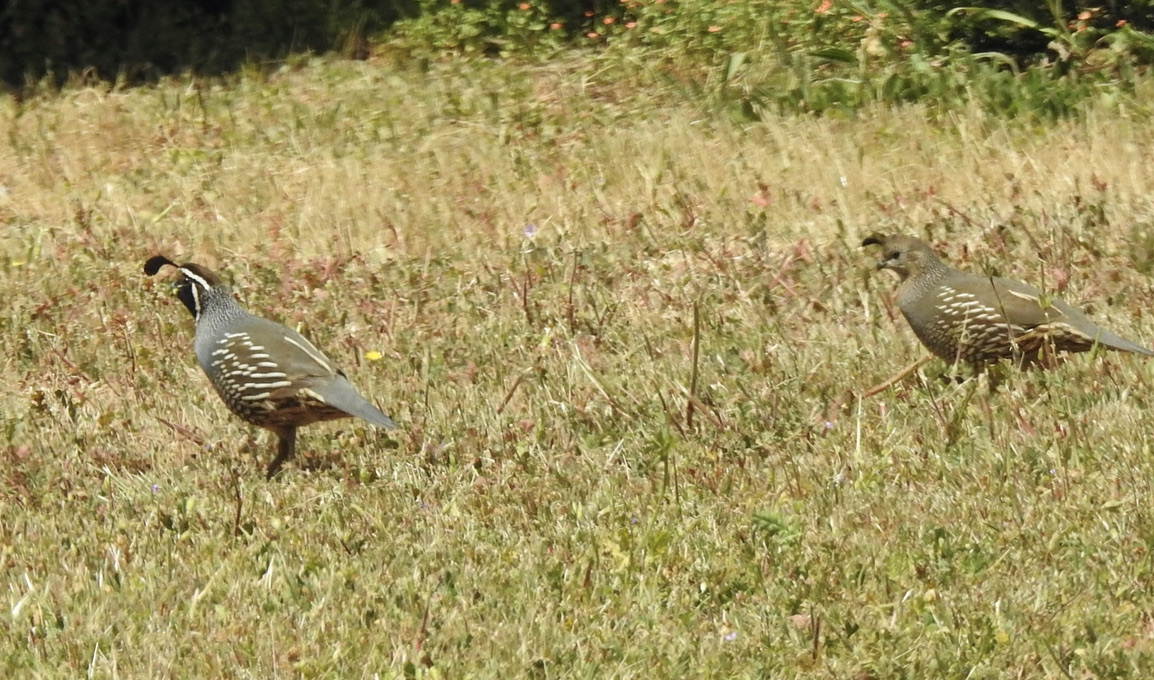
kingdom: Animalia
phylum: Chordata
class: Aves
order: Galliformes
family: Odontophoridae
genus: Callipepla
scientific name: Callipepla californica
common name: California quail
